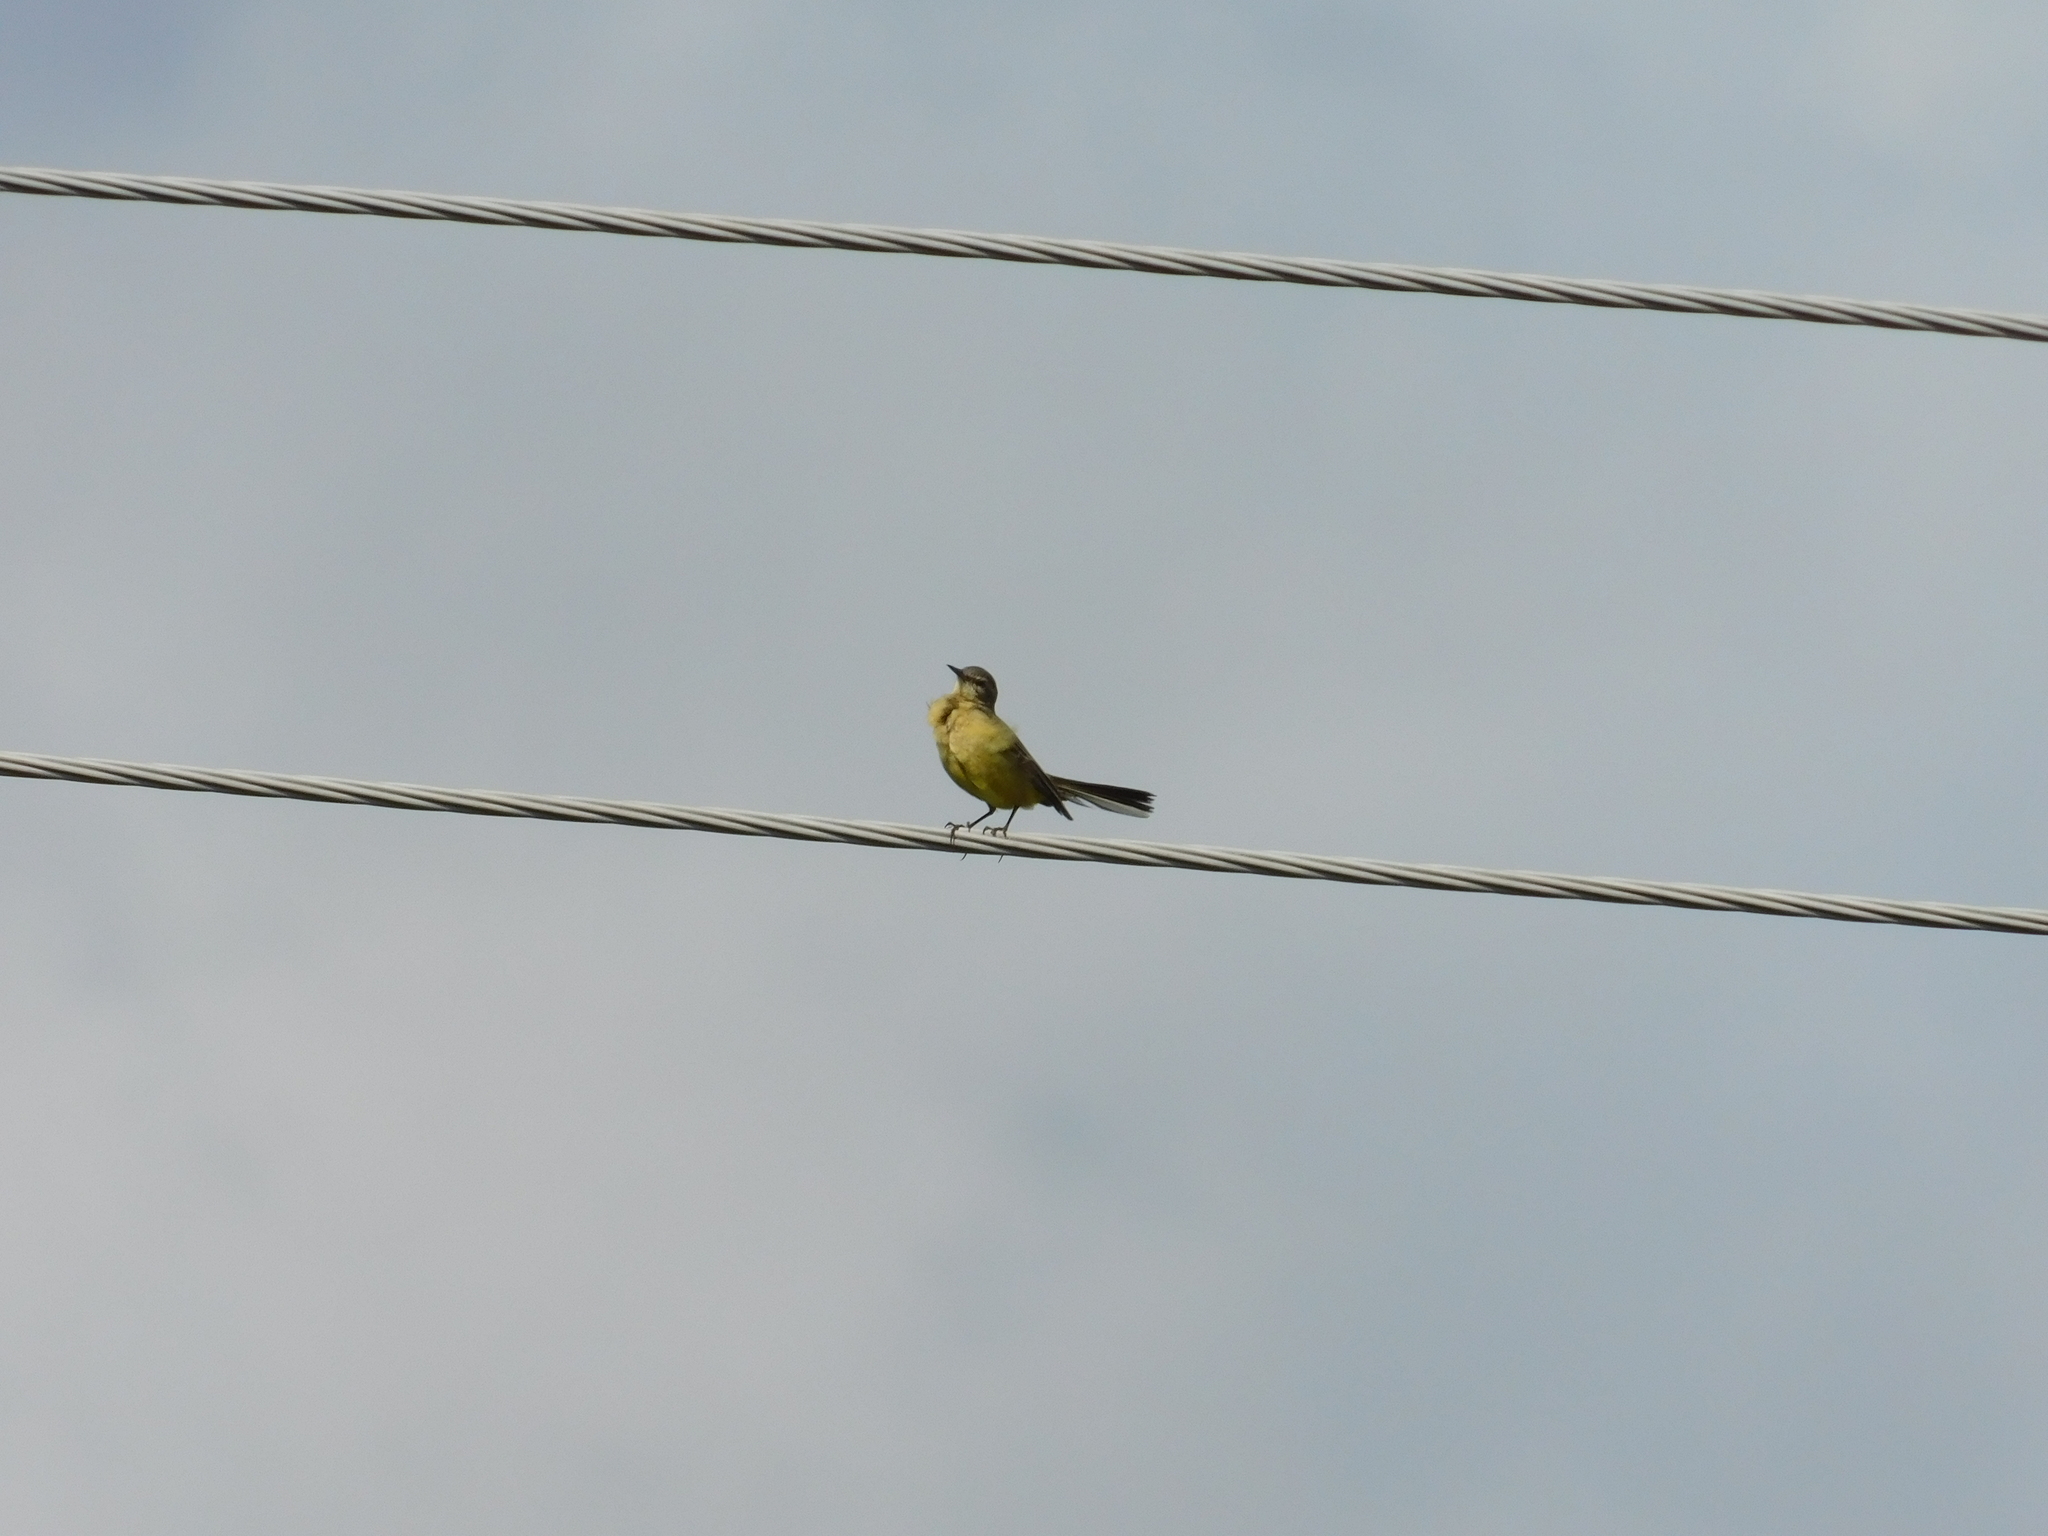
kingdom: Animalia
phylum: Chordata
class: Aves
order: Passeriformes
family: Motacillidae
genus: Motacilla
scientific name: Motacilla flava
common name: Western yellow wagtail
